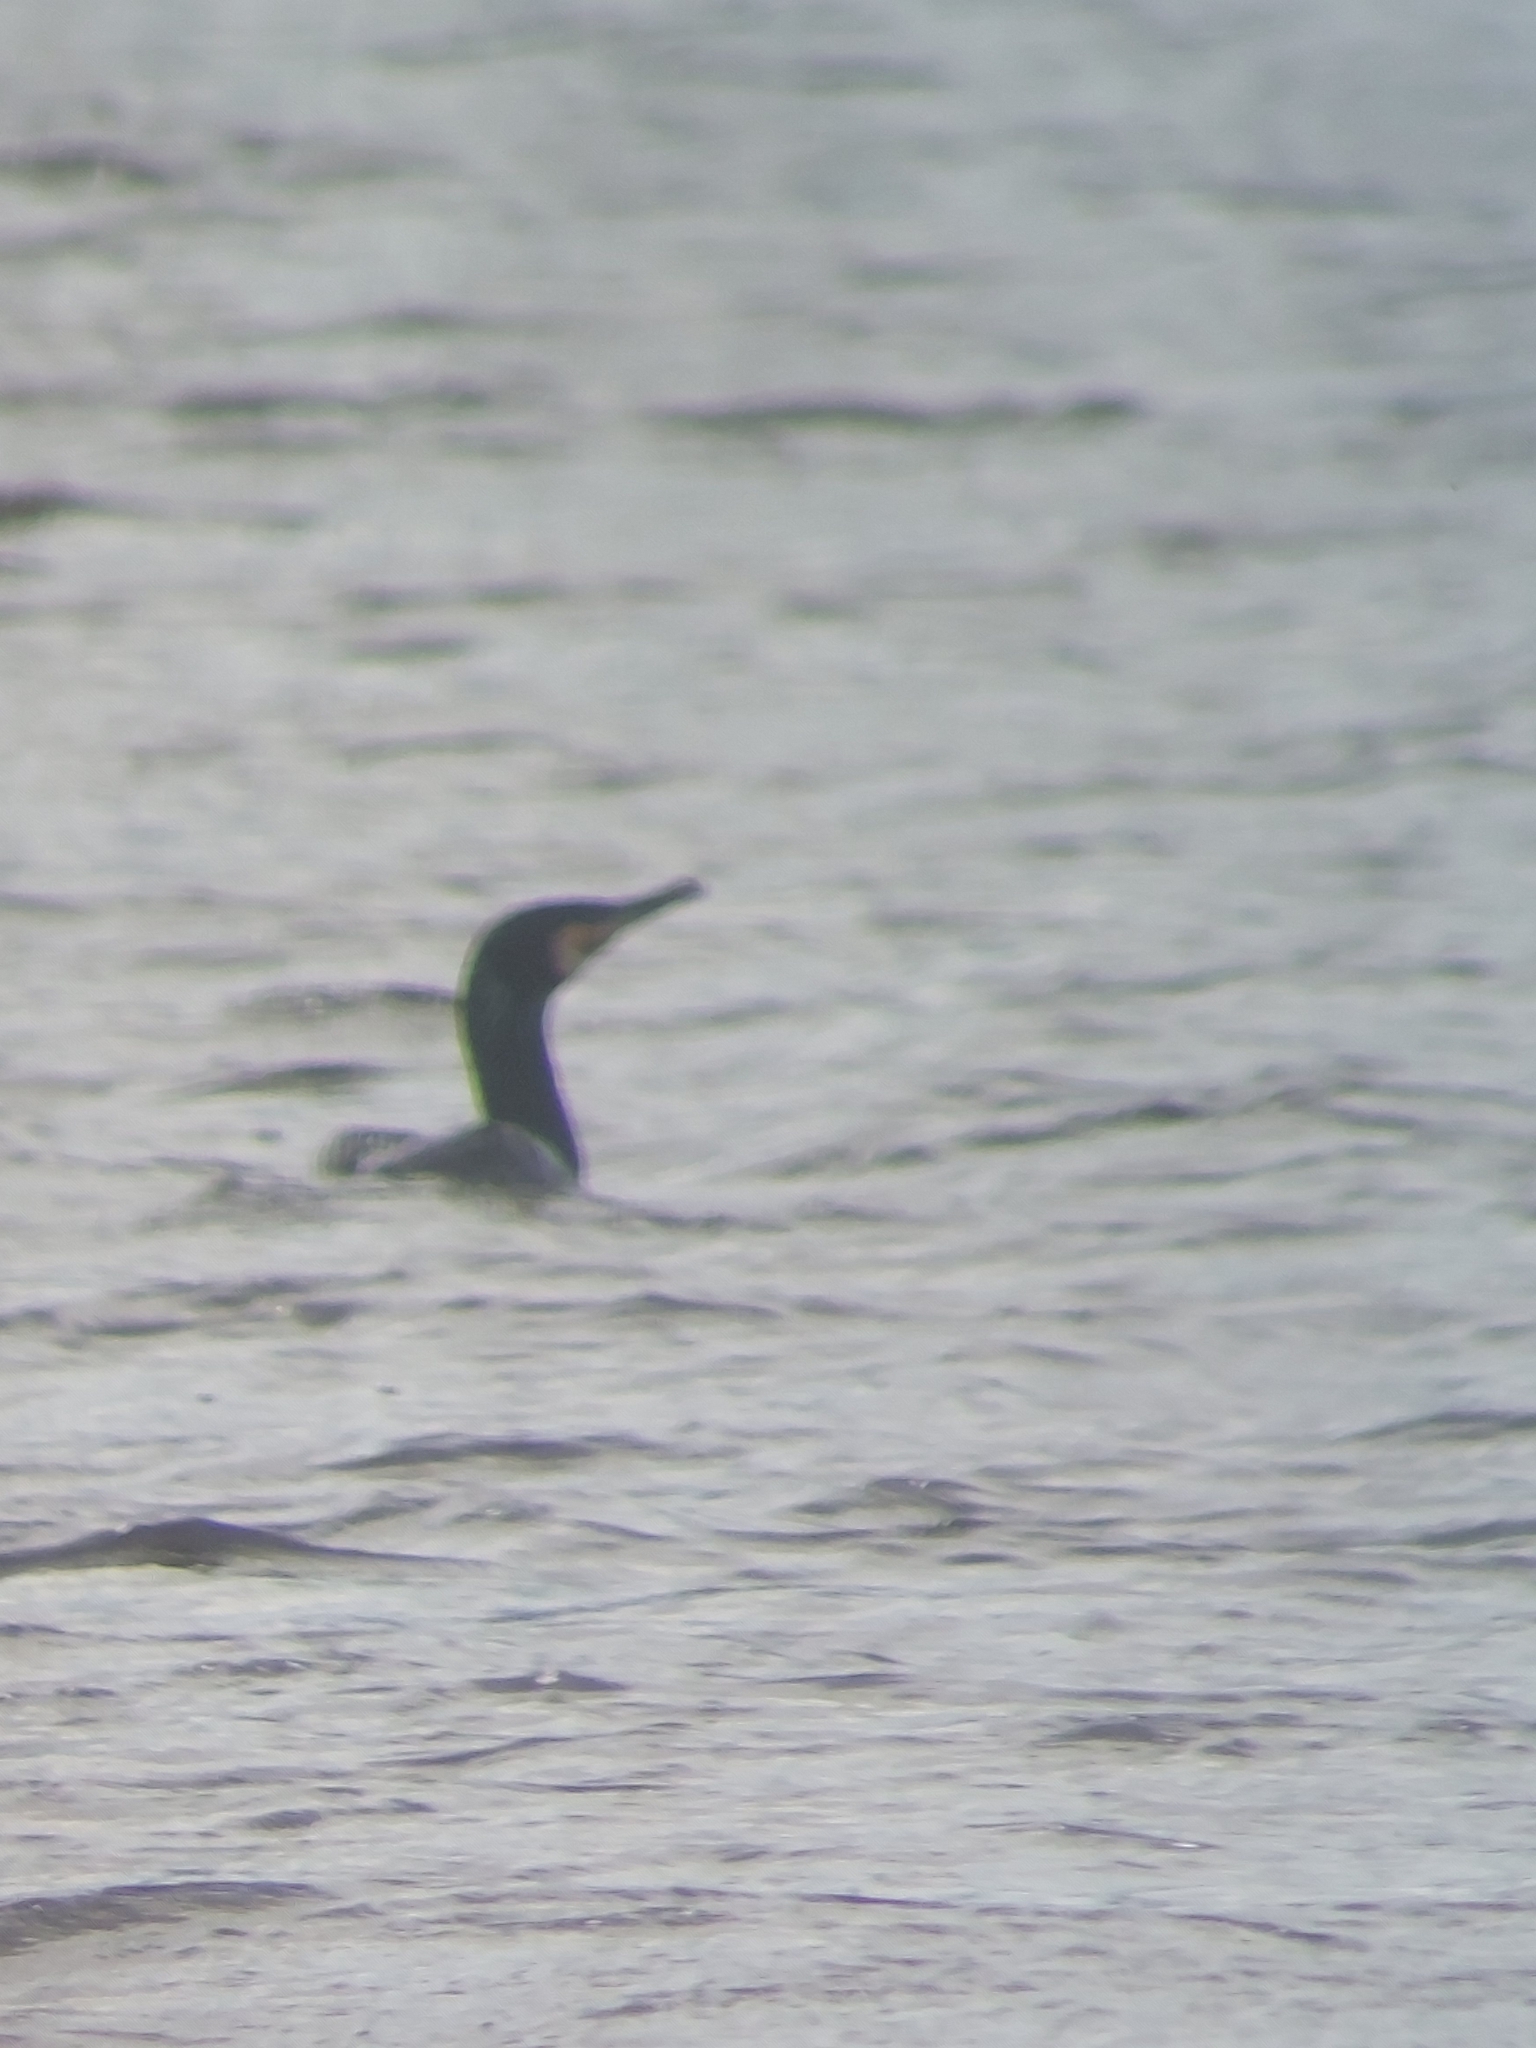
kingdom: Animalia
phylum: Chordata
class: Aves
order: Suliformes
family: Phalacrocoracidae
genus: Phalacrocorax
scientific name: Phalacrocorax carbo
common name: Great cormorant
